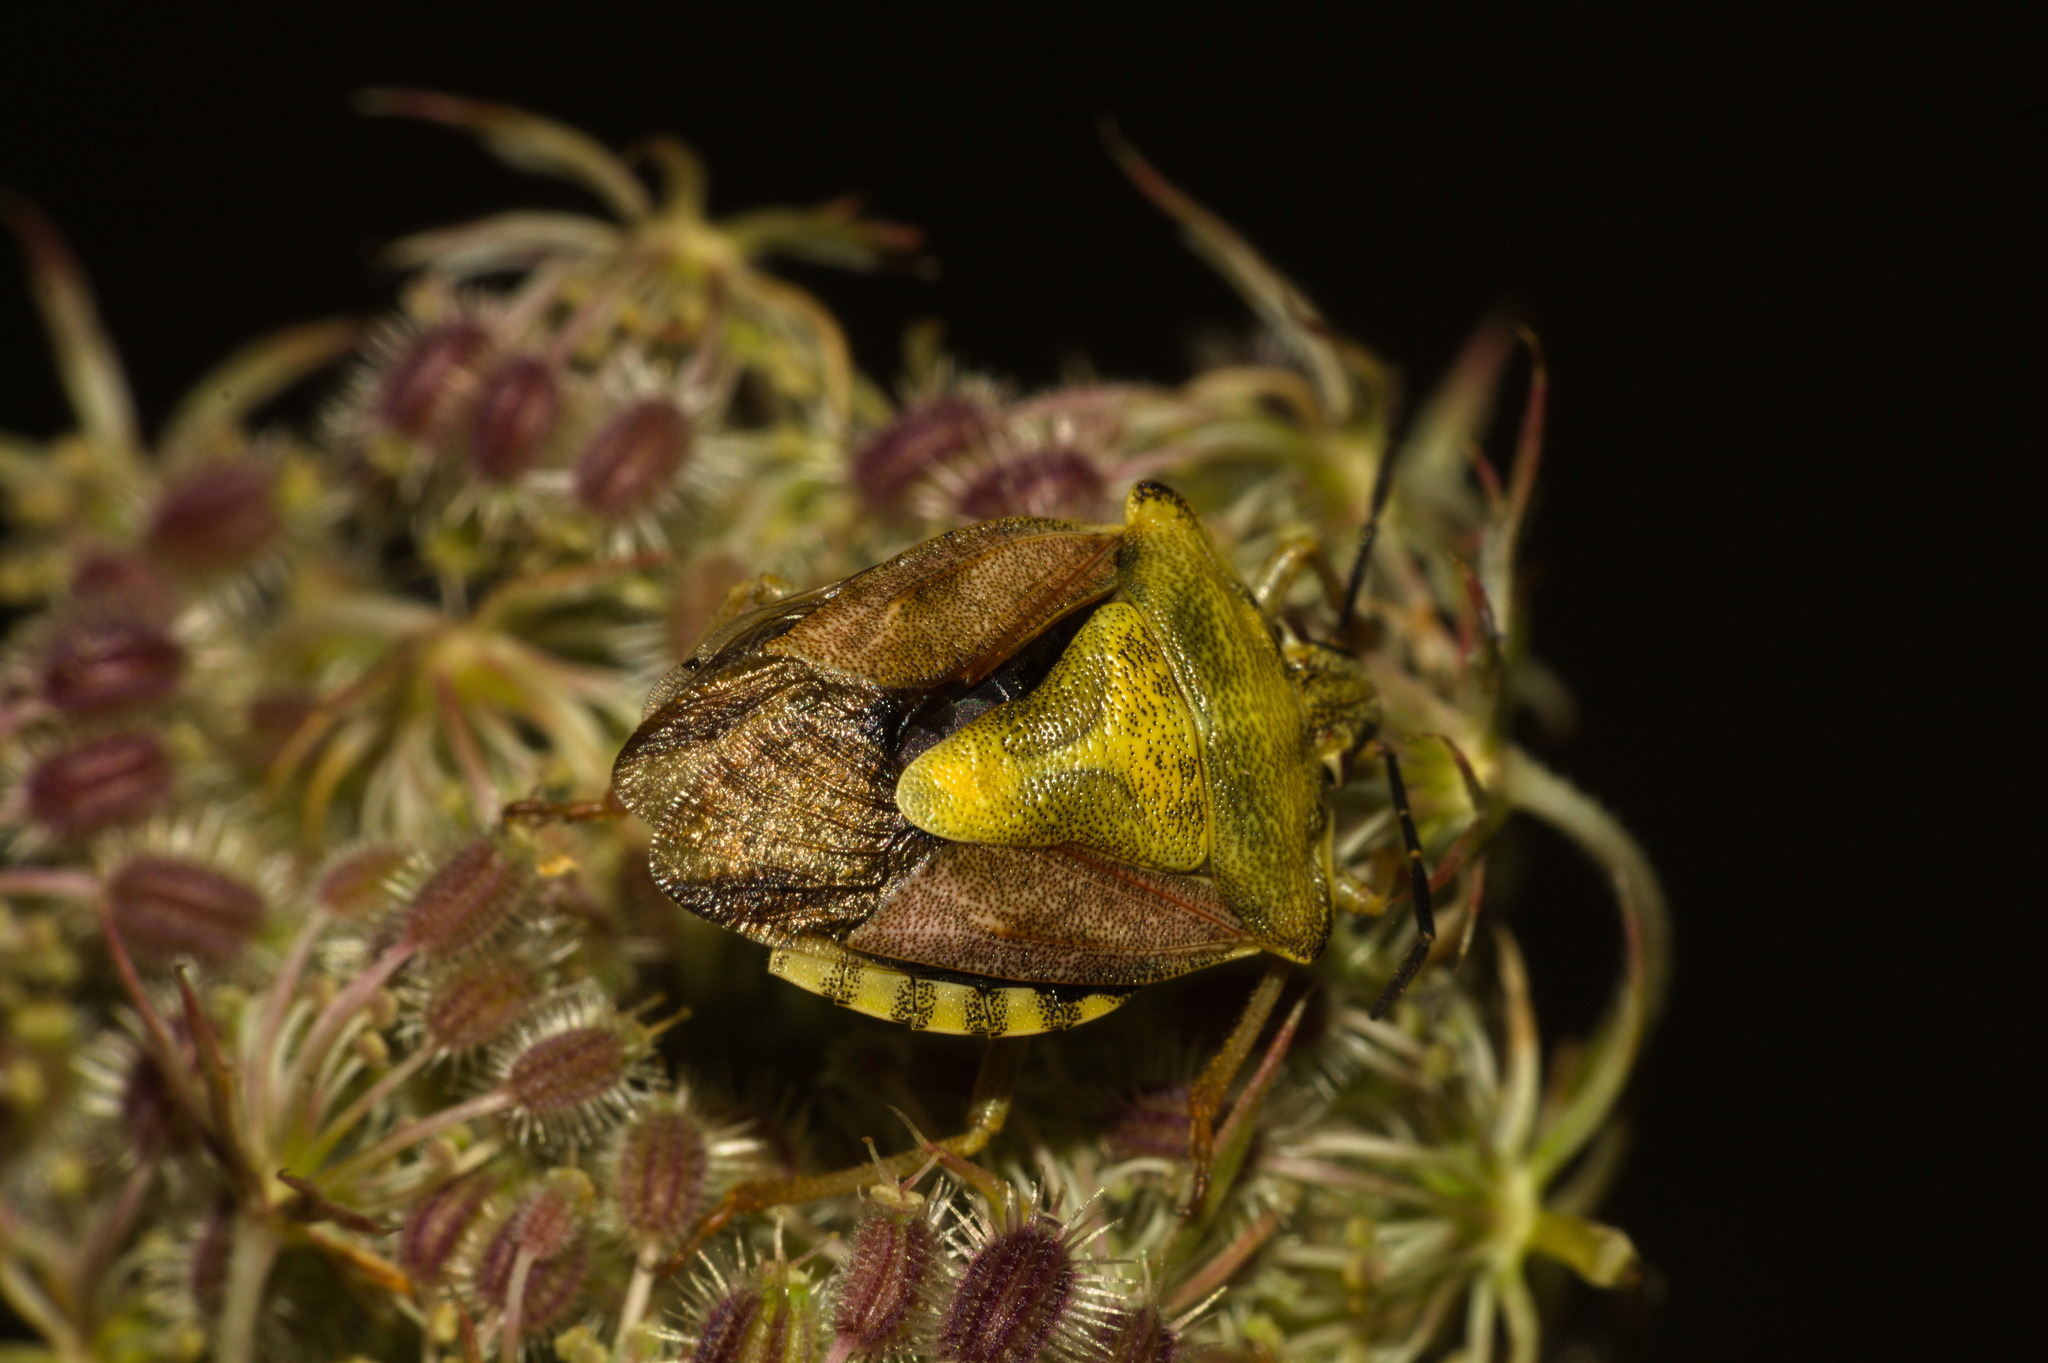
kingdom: Animalia
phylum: Arthropoda
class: Insecta
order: Hemiptera
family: Pentatomidae
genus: Carpocoris
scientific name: Carpocoris purpureipennis
